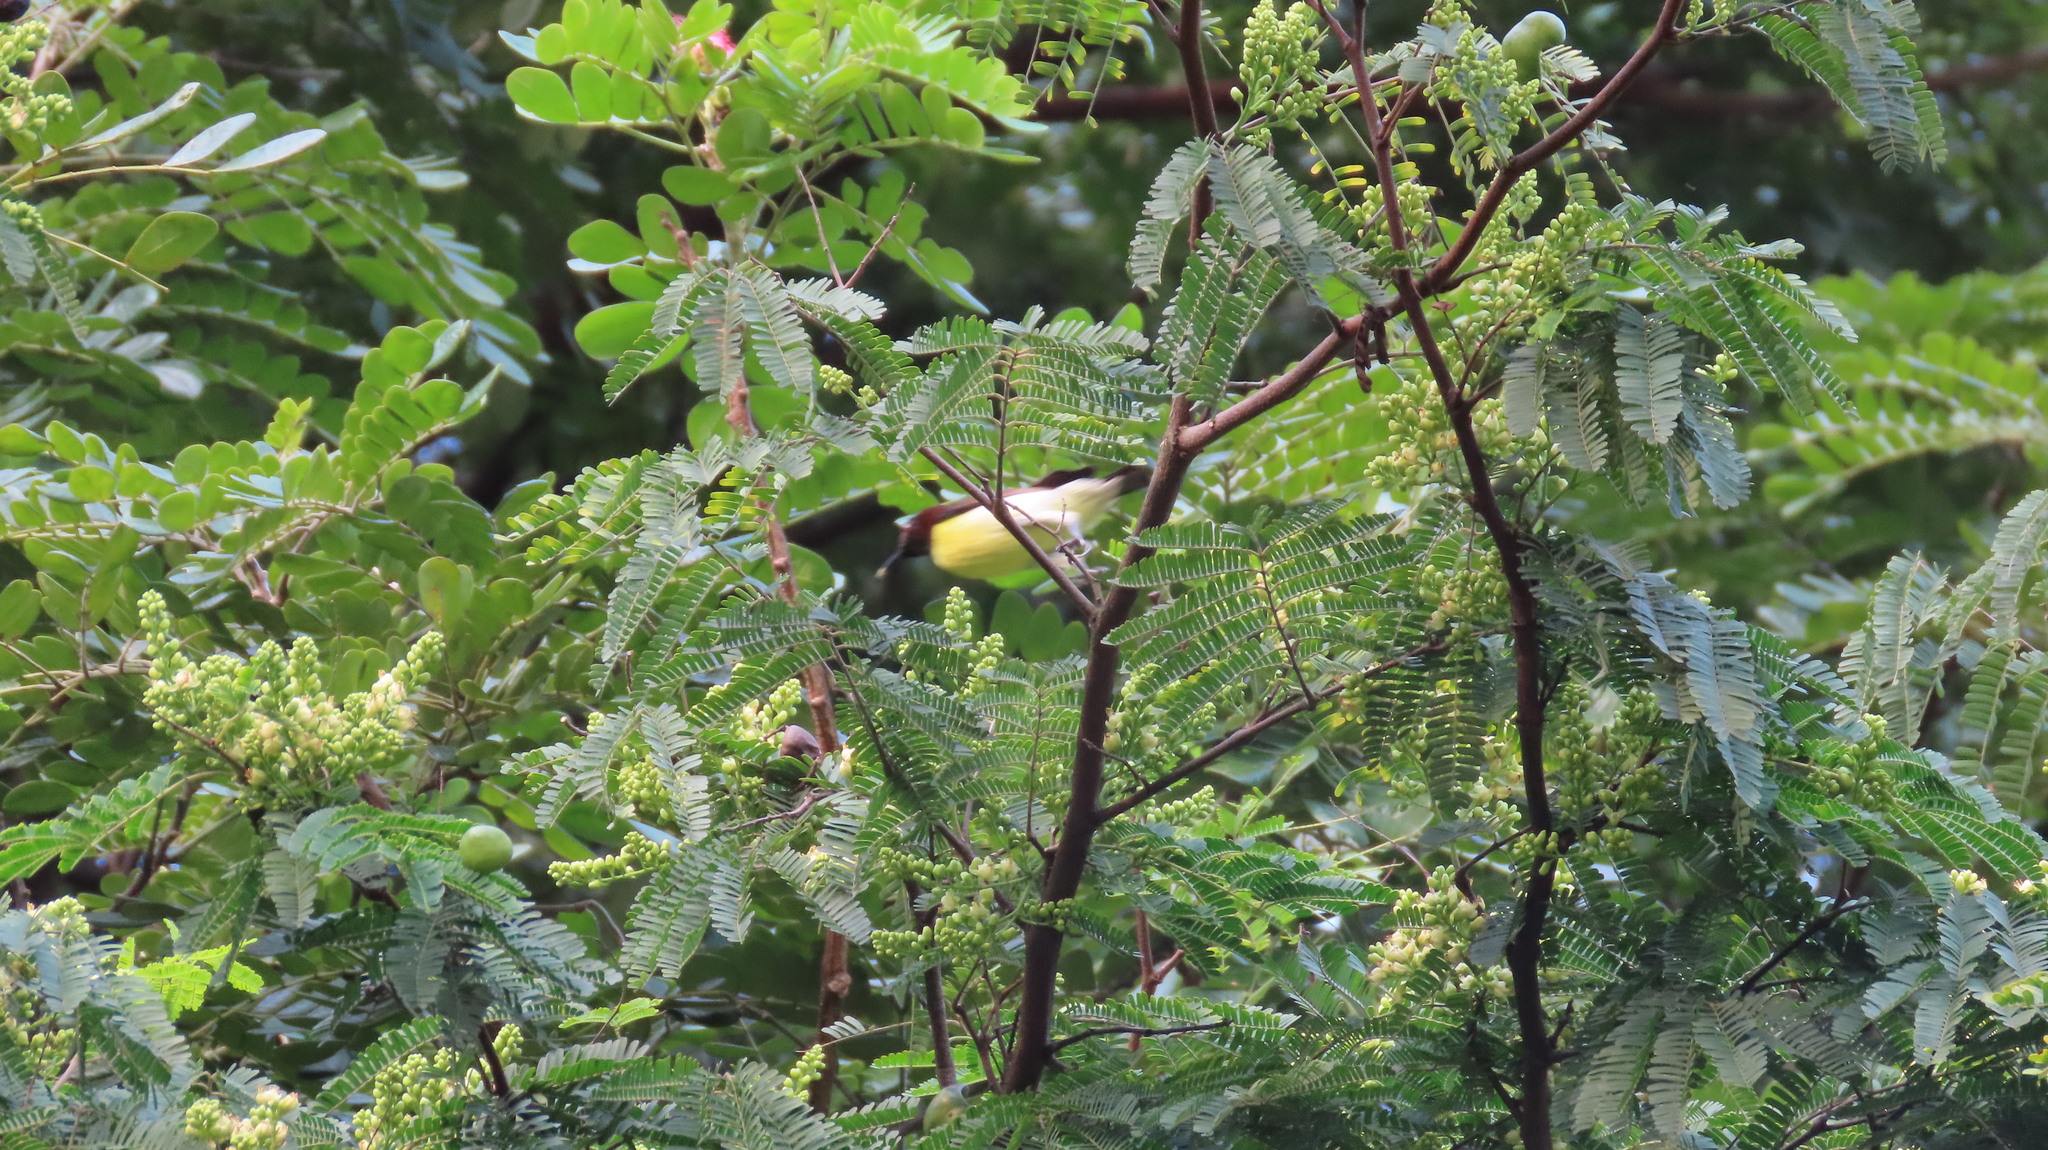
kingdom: Animalia
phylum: Chordata
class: Aves
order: Passeriformes
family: Nectariniidae
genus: Leptocoma
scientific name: Leptocoma zeylonica
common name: Purple-rumped sunbird
